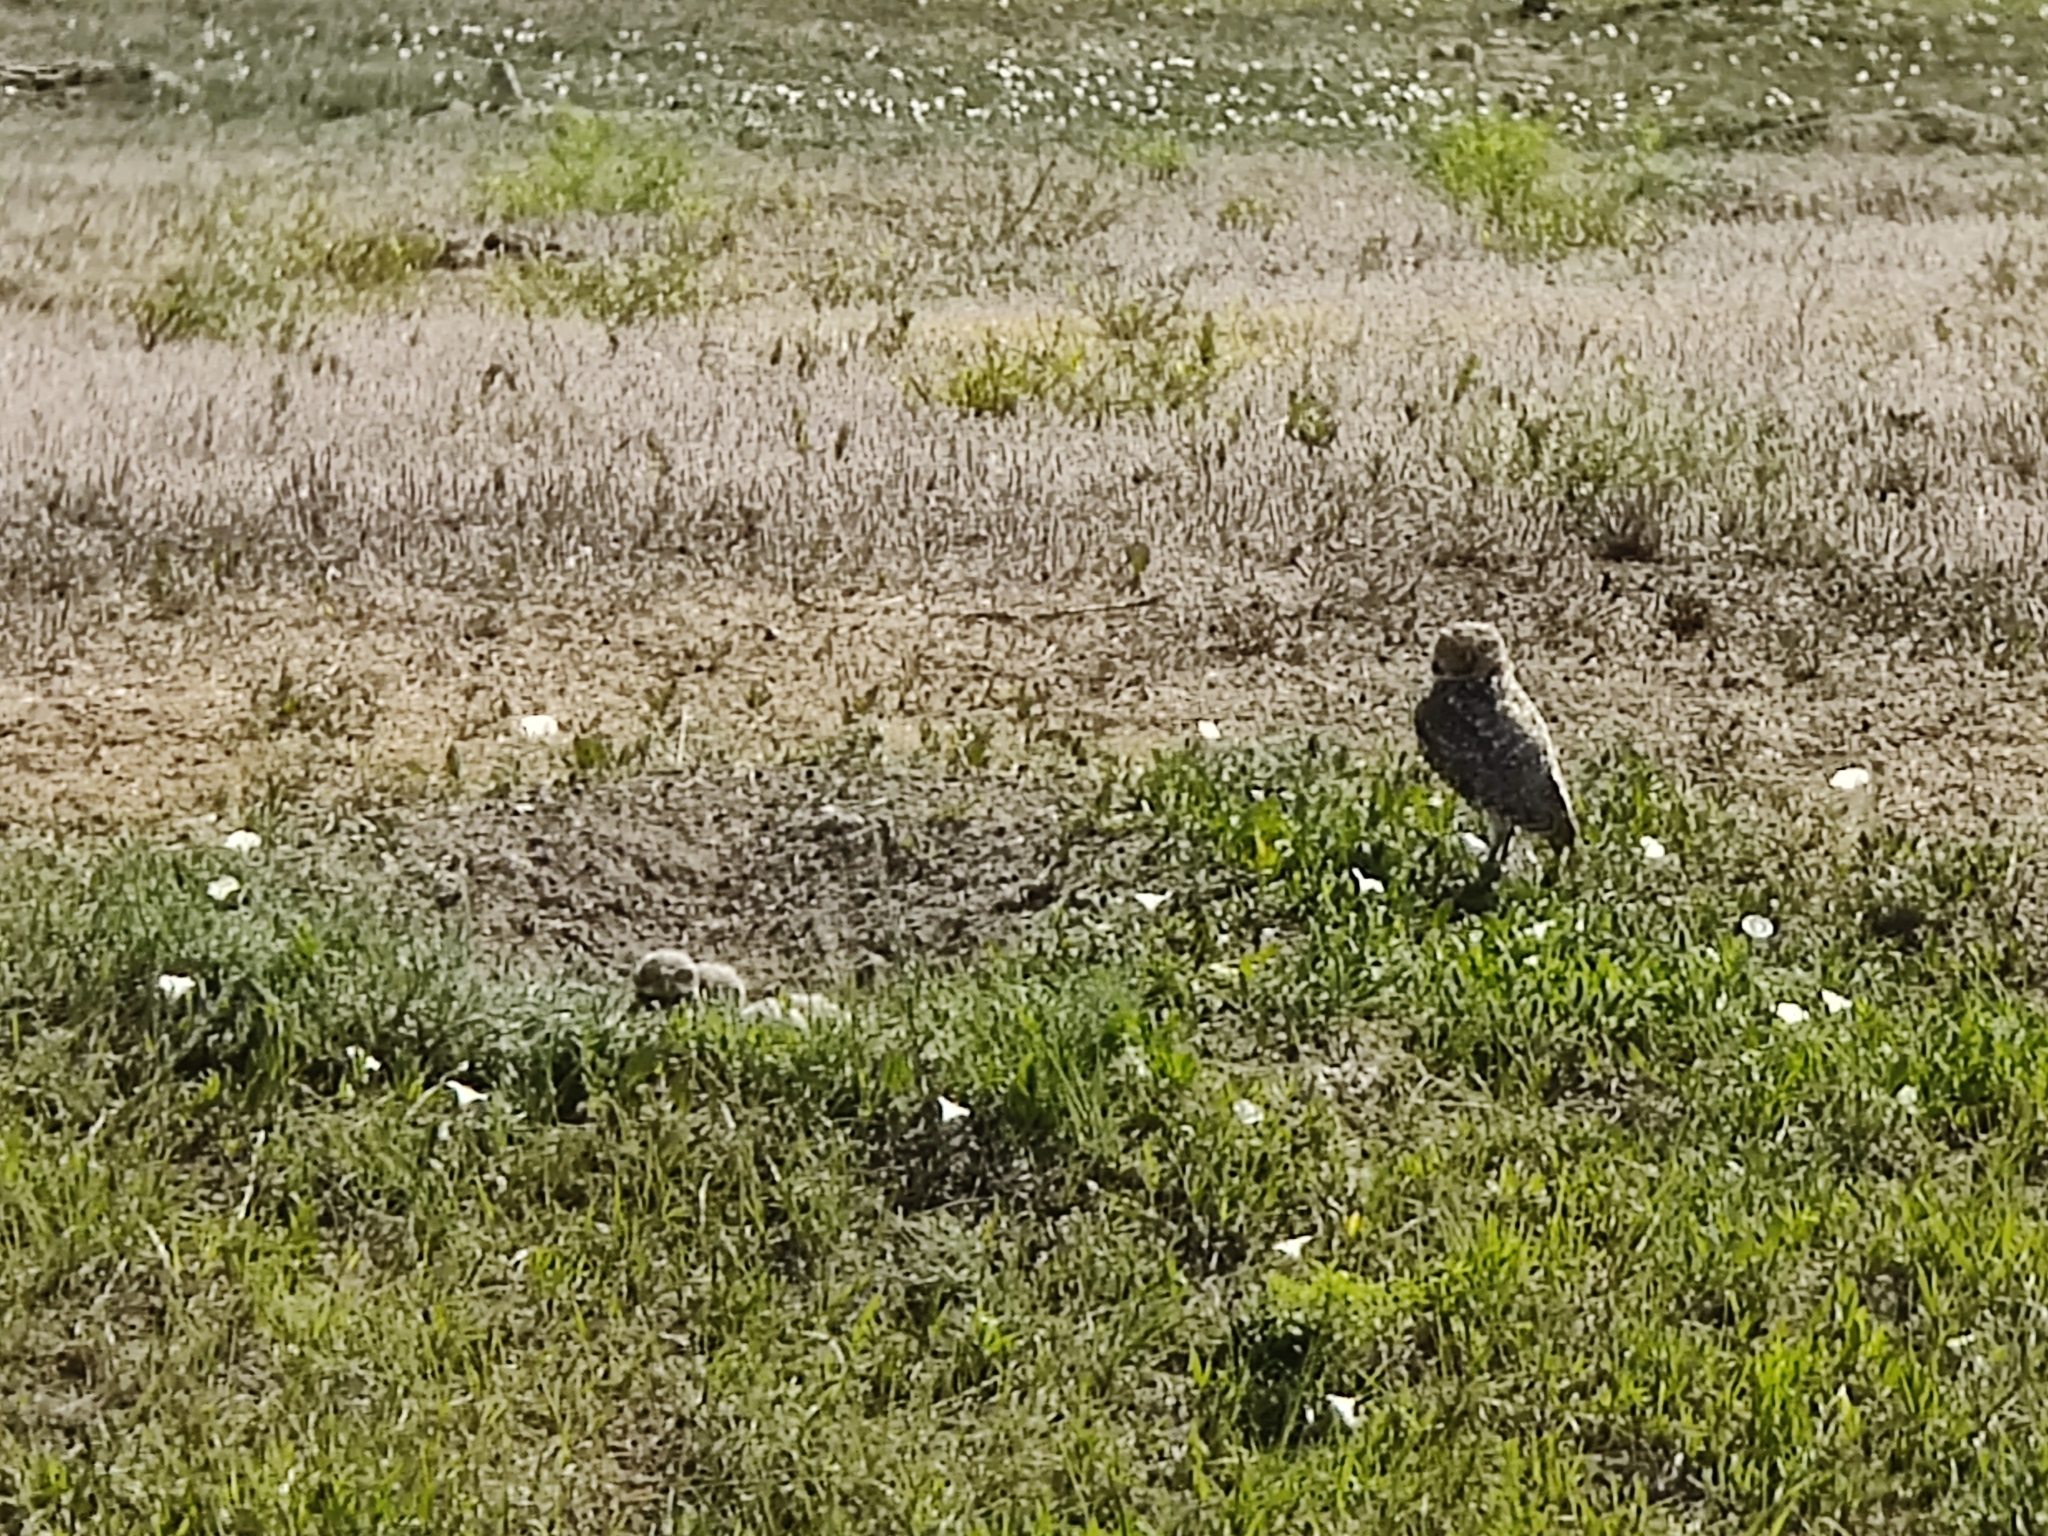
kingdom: Animalia
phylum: Chordata
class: Aves
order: Strigiformes
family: Strigidae
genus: Athene
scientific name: Athene cunicularia
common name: Burrowing owl
